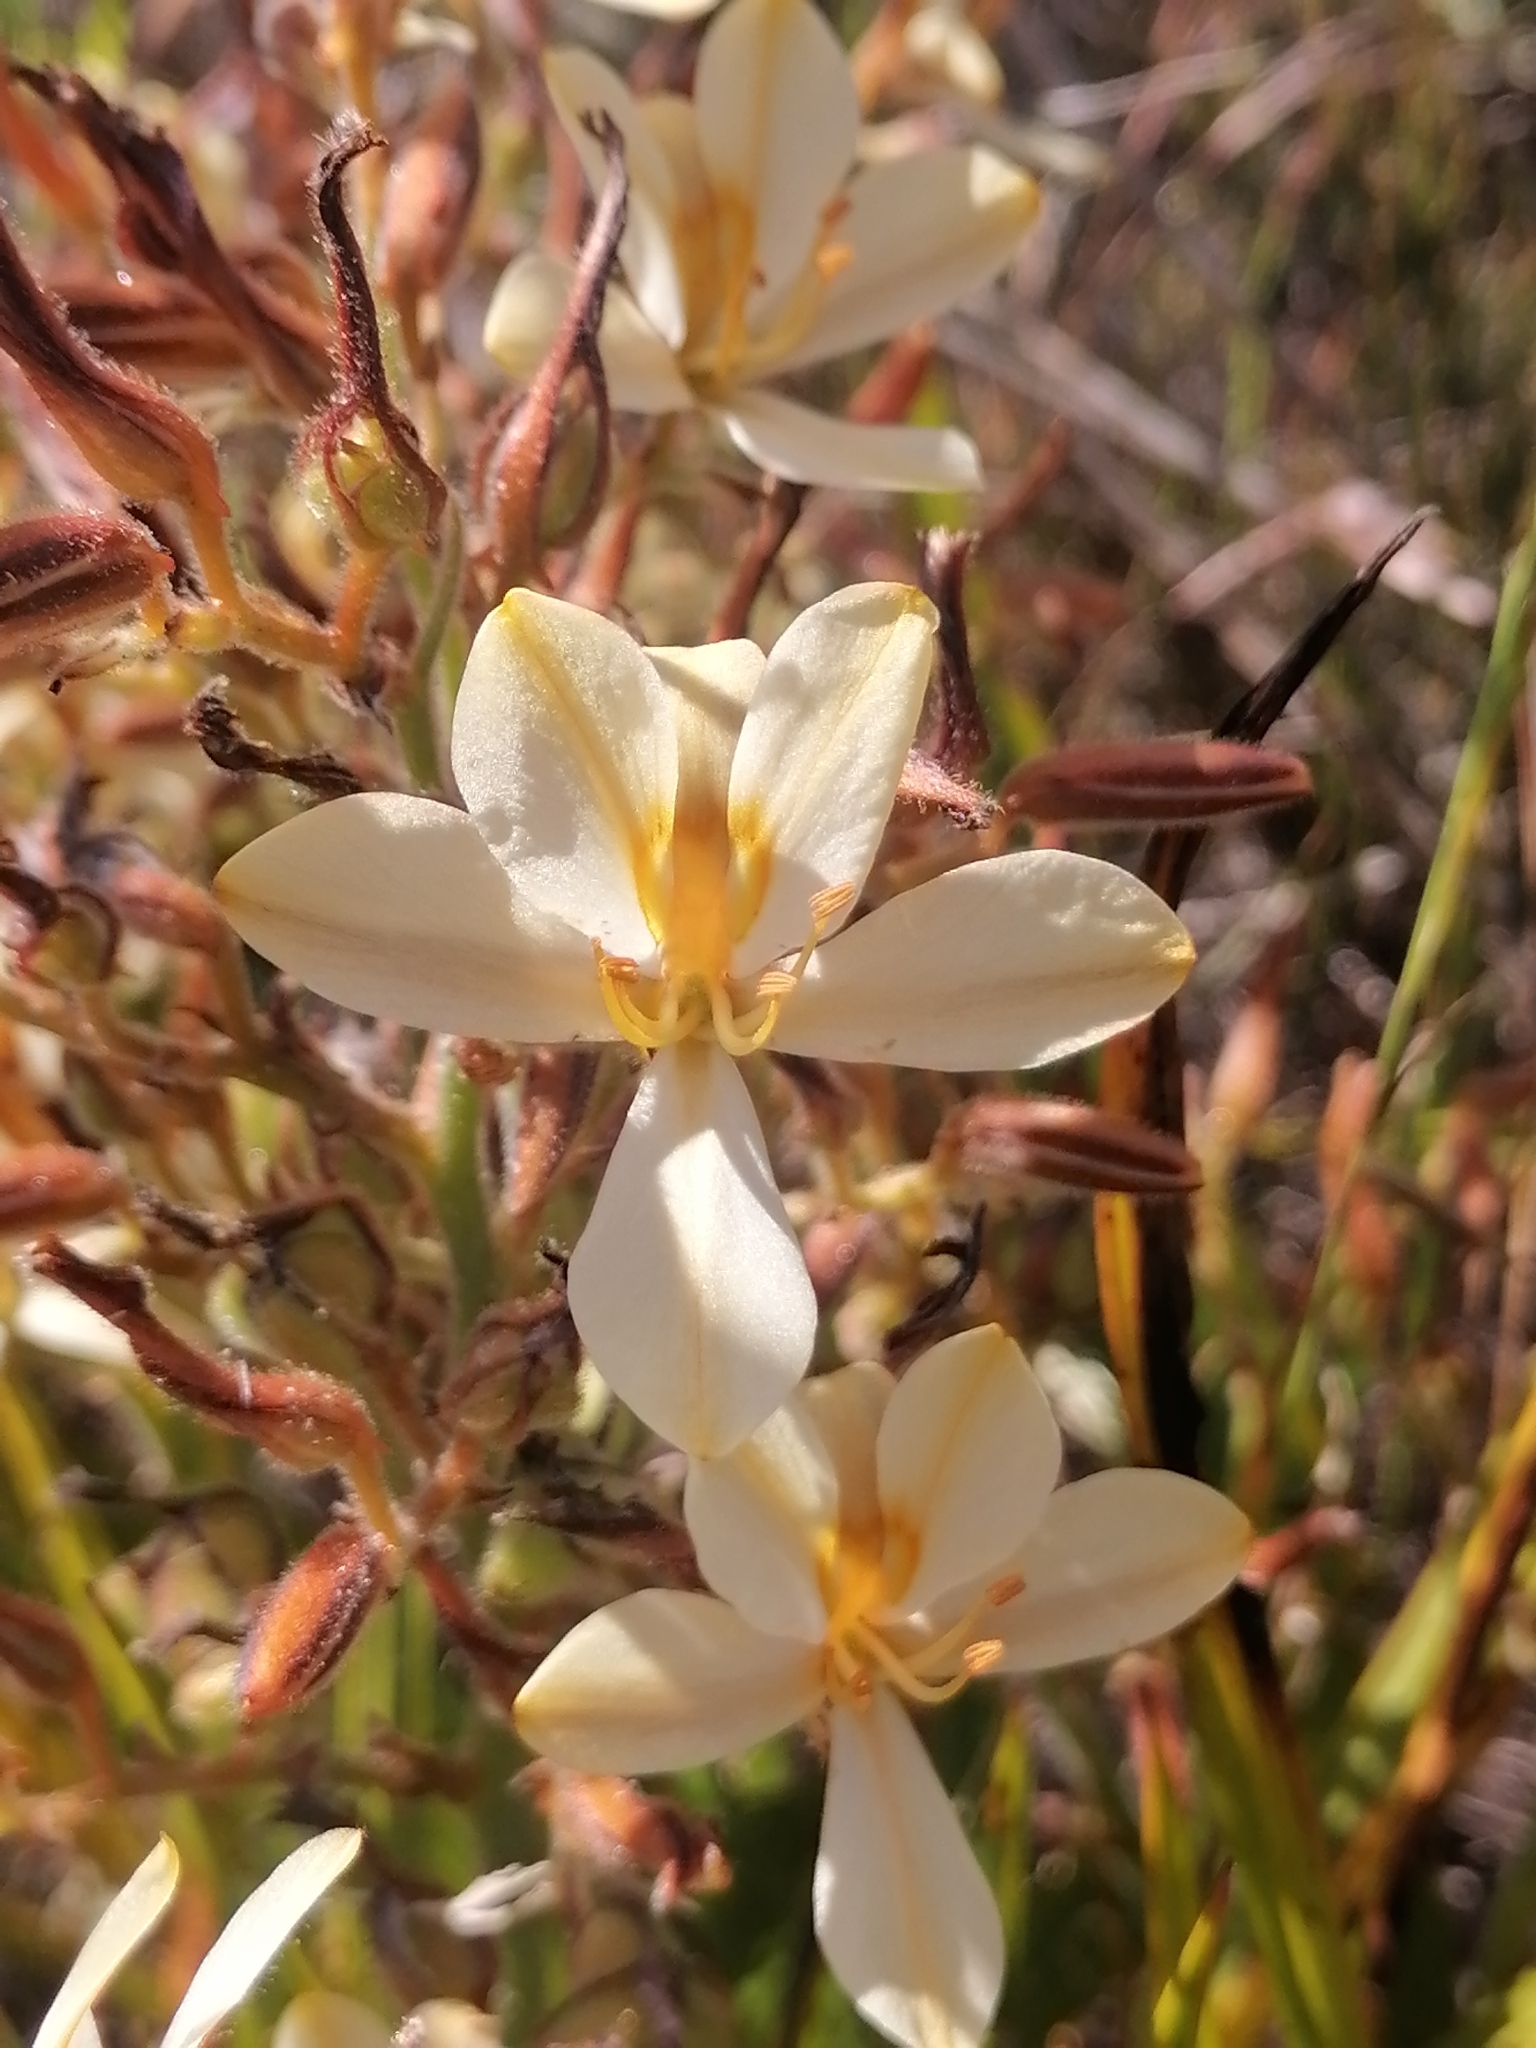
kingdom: Plantae
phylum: Tracheophyta
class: Liliopsida
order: Commelinales
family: Haemodoraceae
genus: Wachendorfia
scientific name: Wachendorfia paniculata
